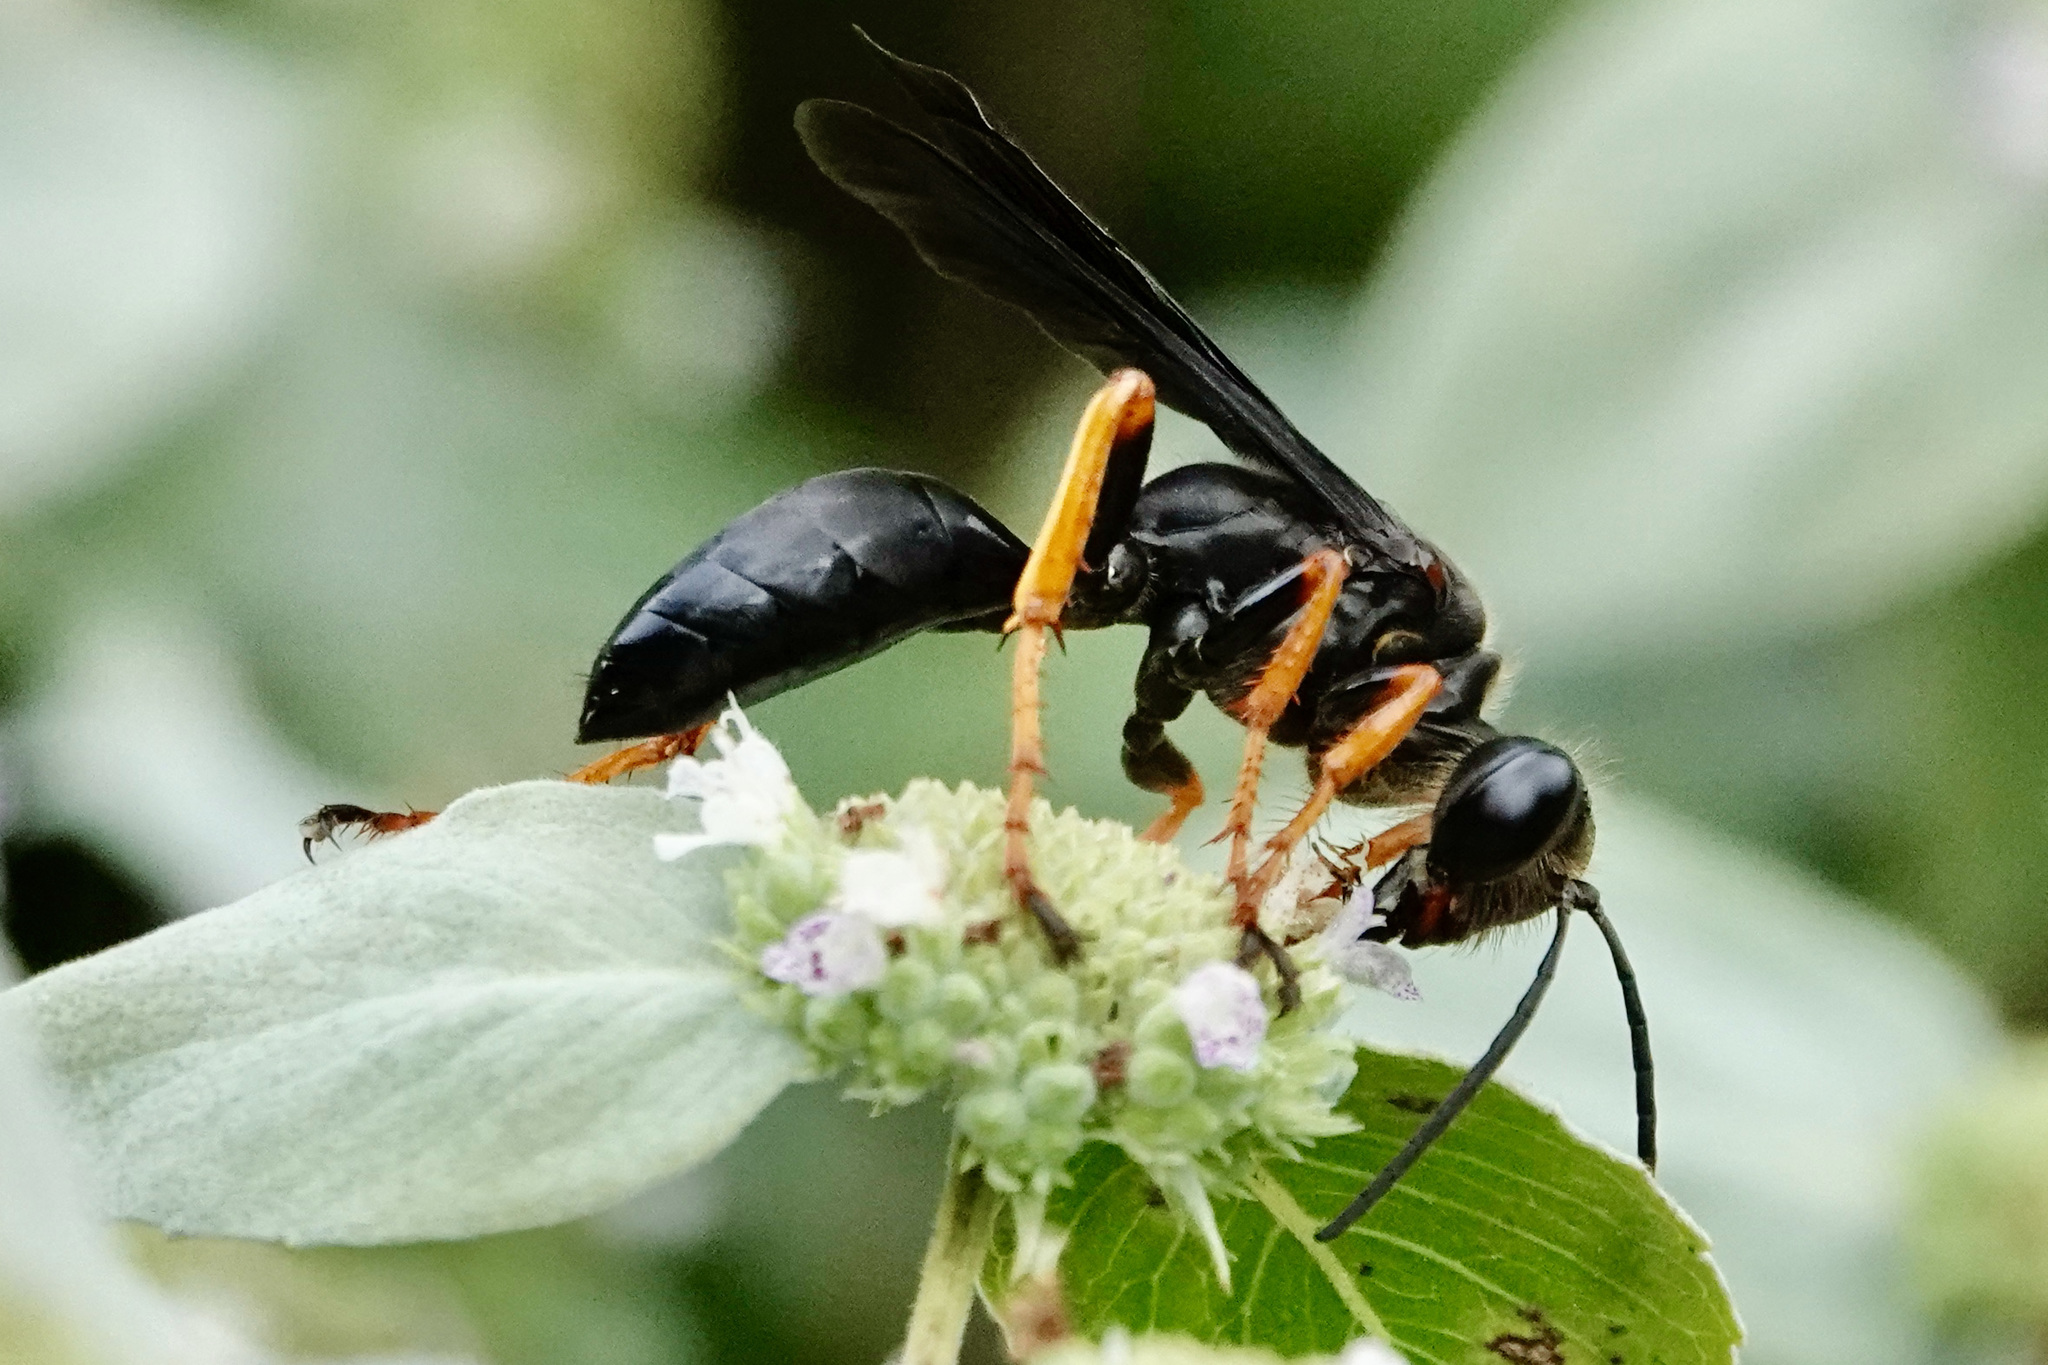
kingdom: Animalia
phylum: Arthropoda
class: Insecta
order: Hymenoptera
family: Sphecidae
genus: Sphex
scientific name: Sphex nudus
